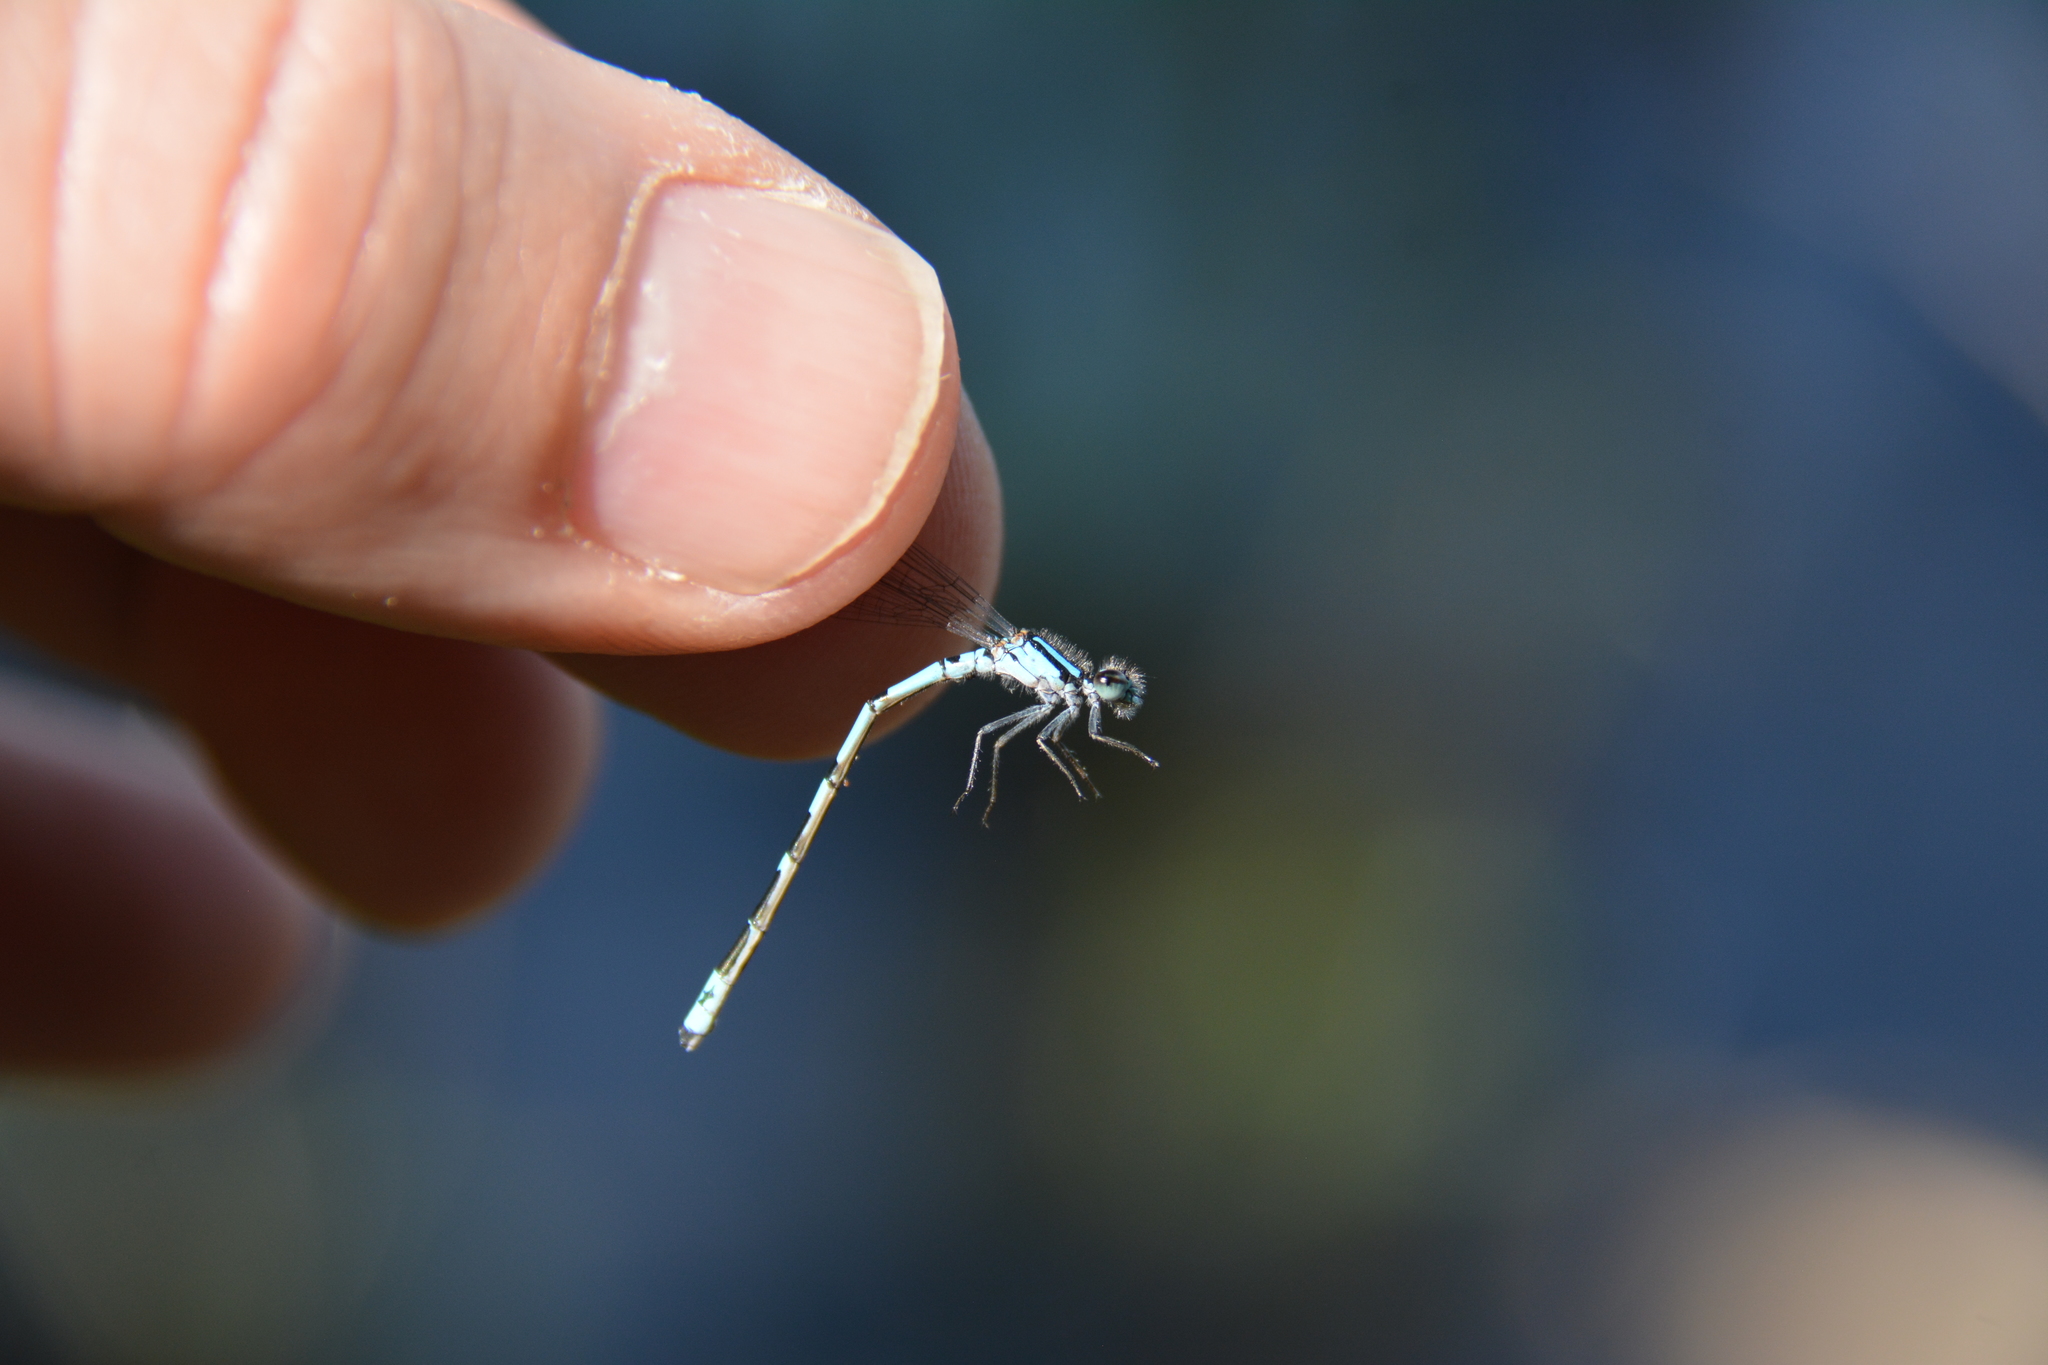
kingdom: Animalia
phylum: Arthropoda
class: Insecta
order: Odonata
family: Coenagrionidae
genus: Enallagma
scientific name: Enallagma laterale
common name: New england bluet
